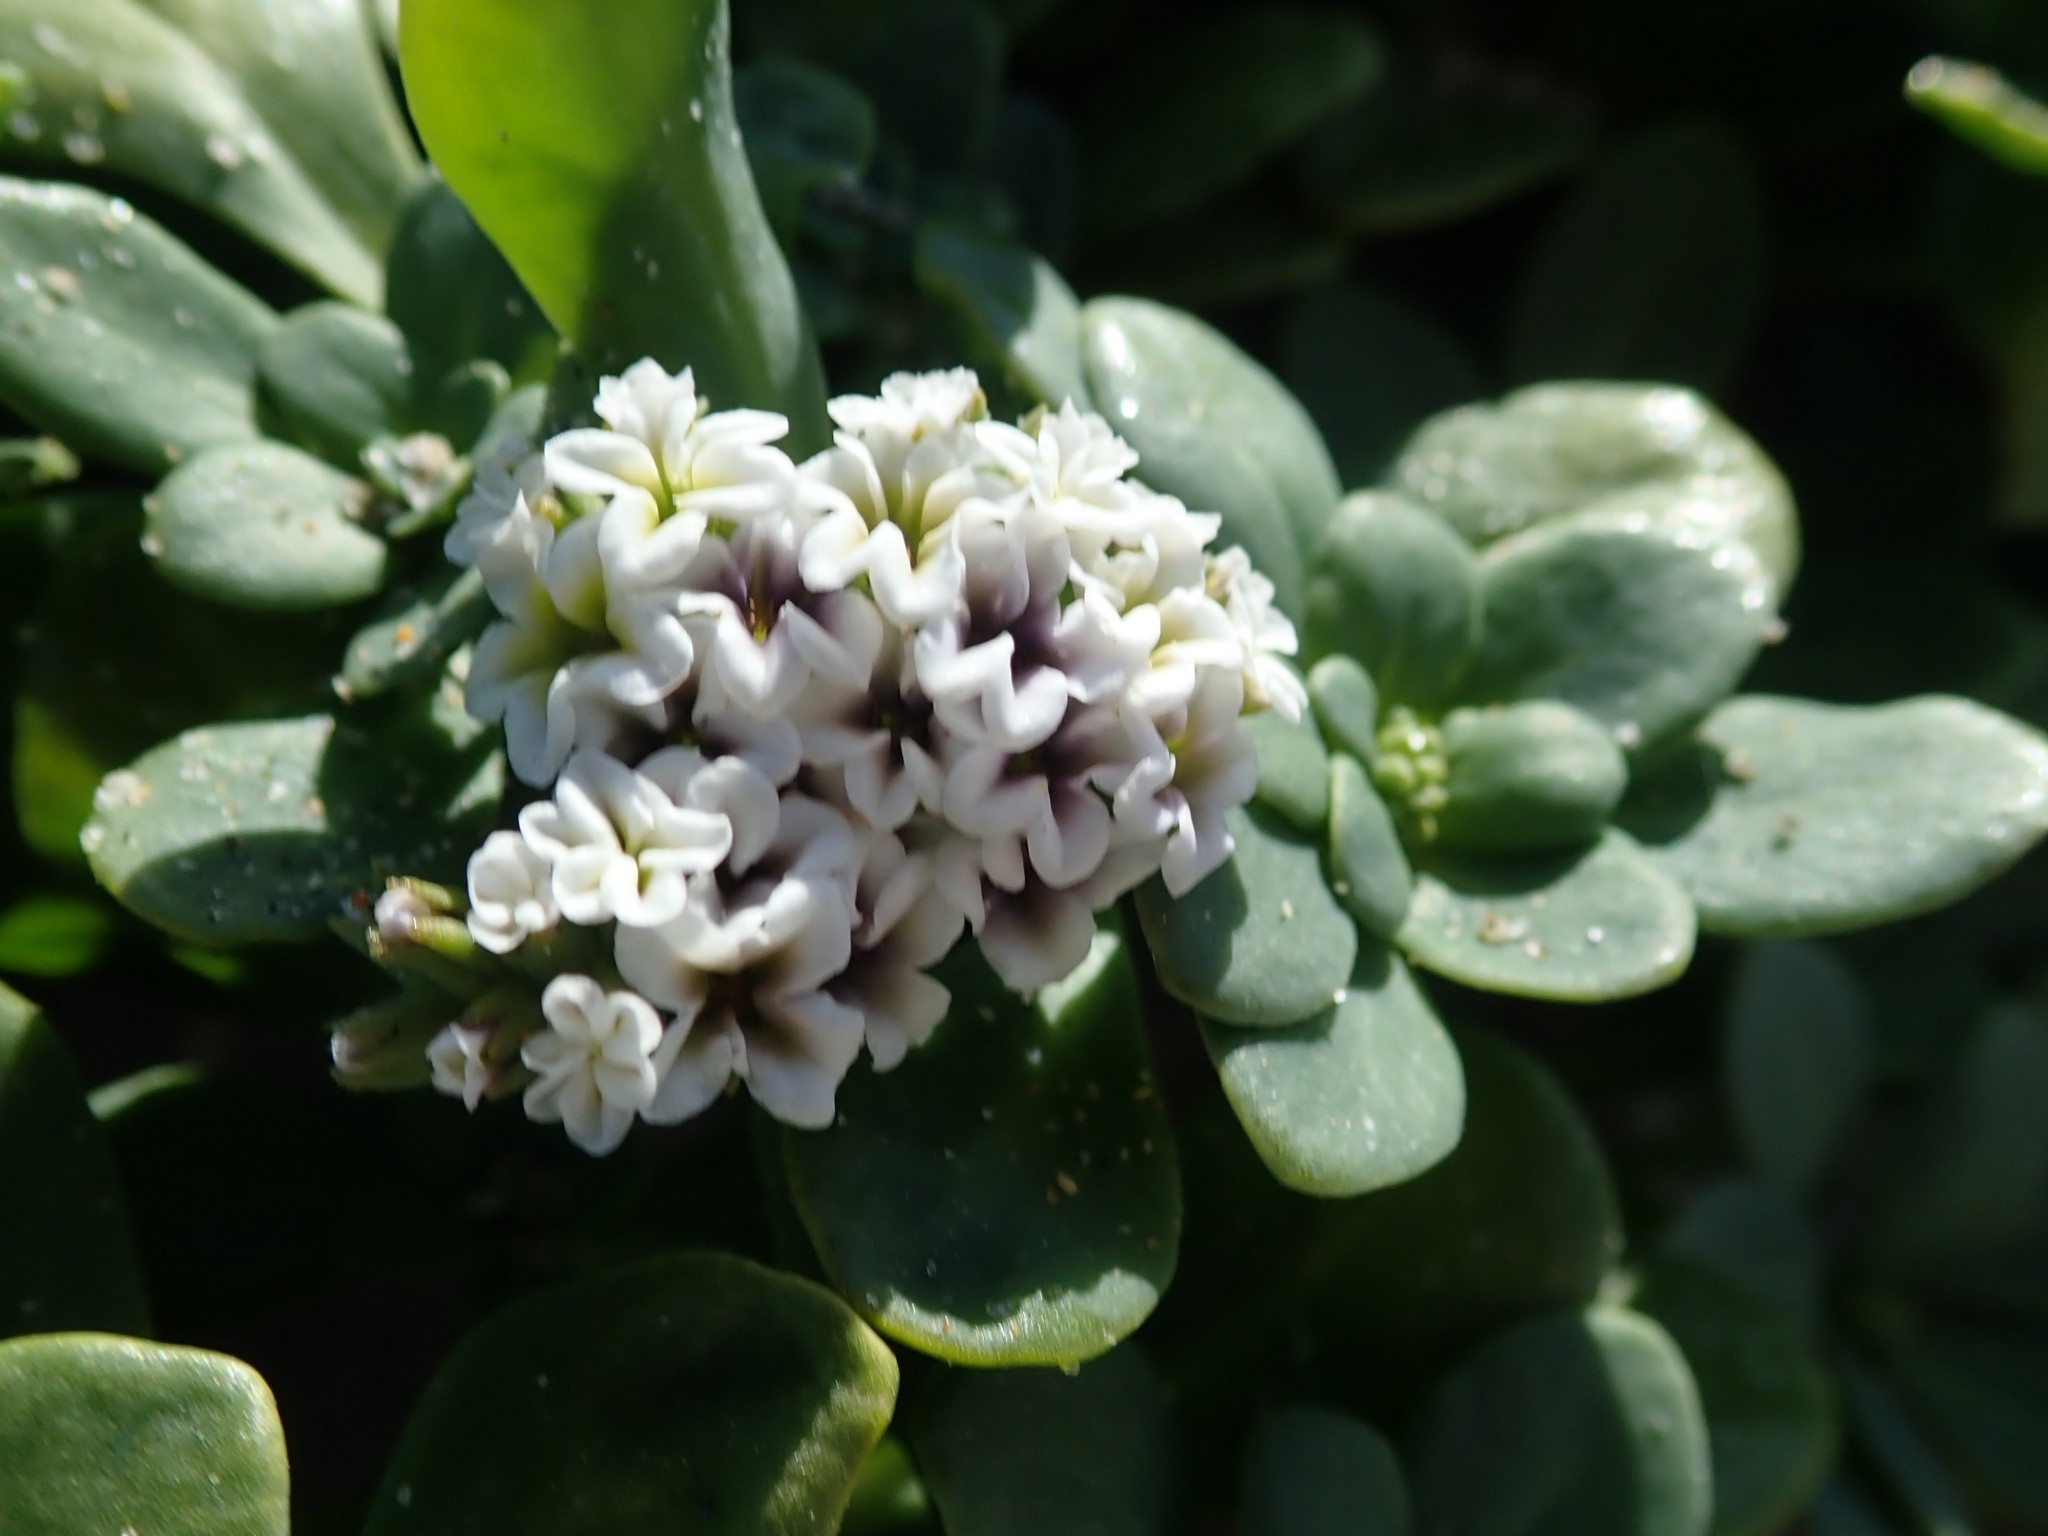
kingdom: Plantae
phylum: Tracheophyta
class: Magnoliopsida
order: Boraginales
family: Heliotropiaceae
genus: Heliotropium
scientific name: Heliotropium curassavicum
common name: Seaside heliotrope
